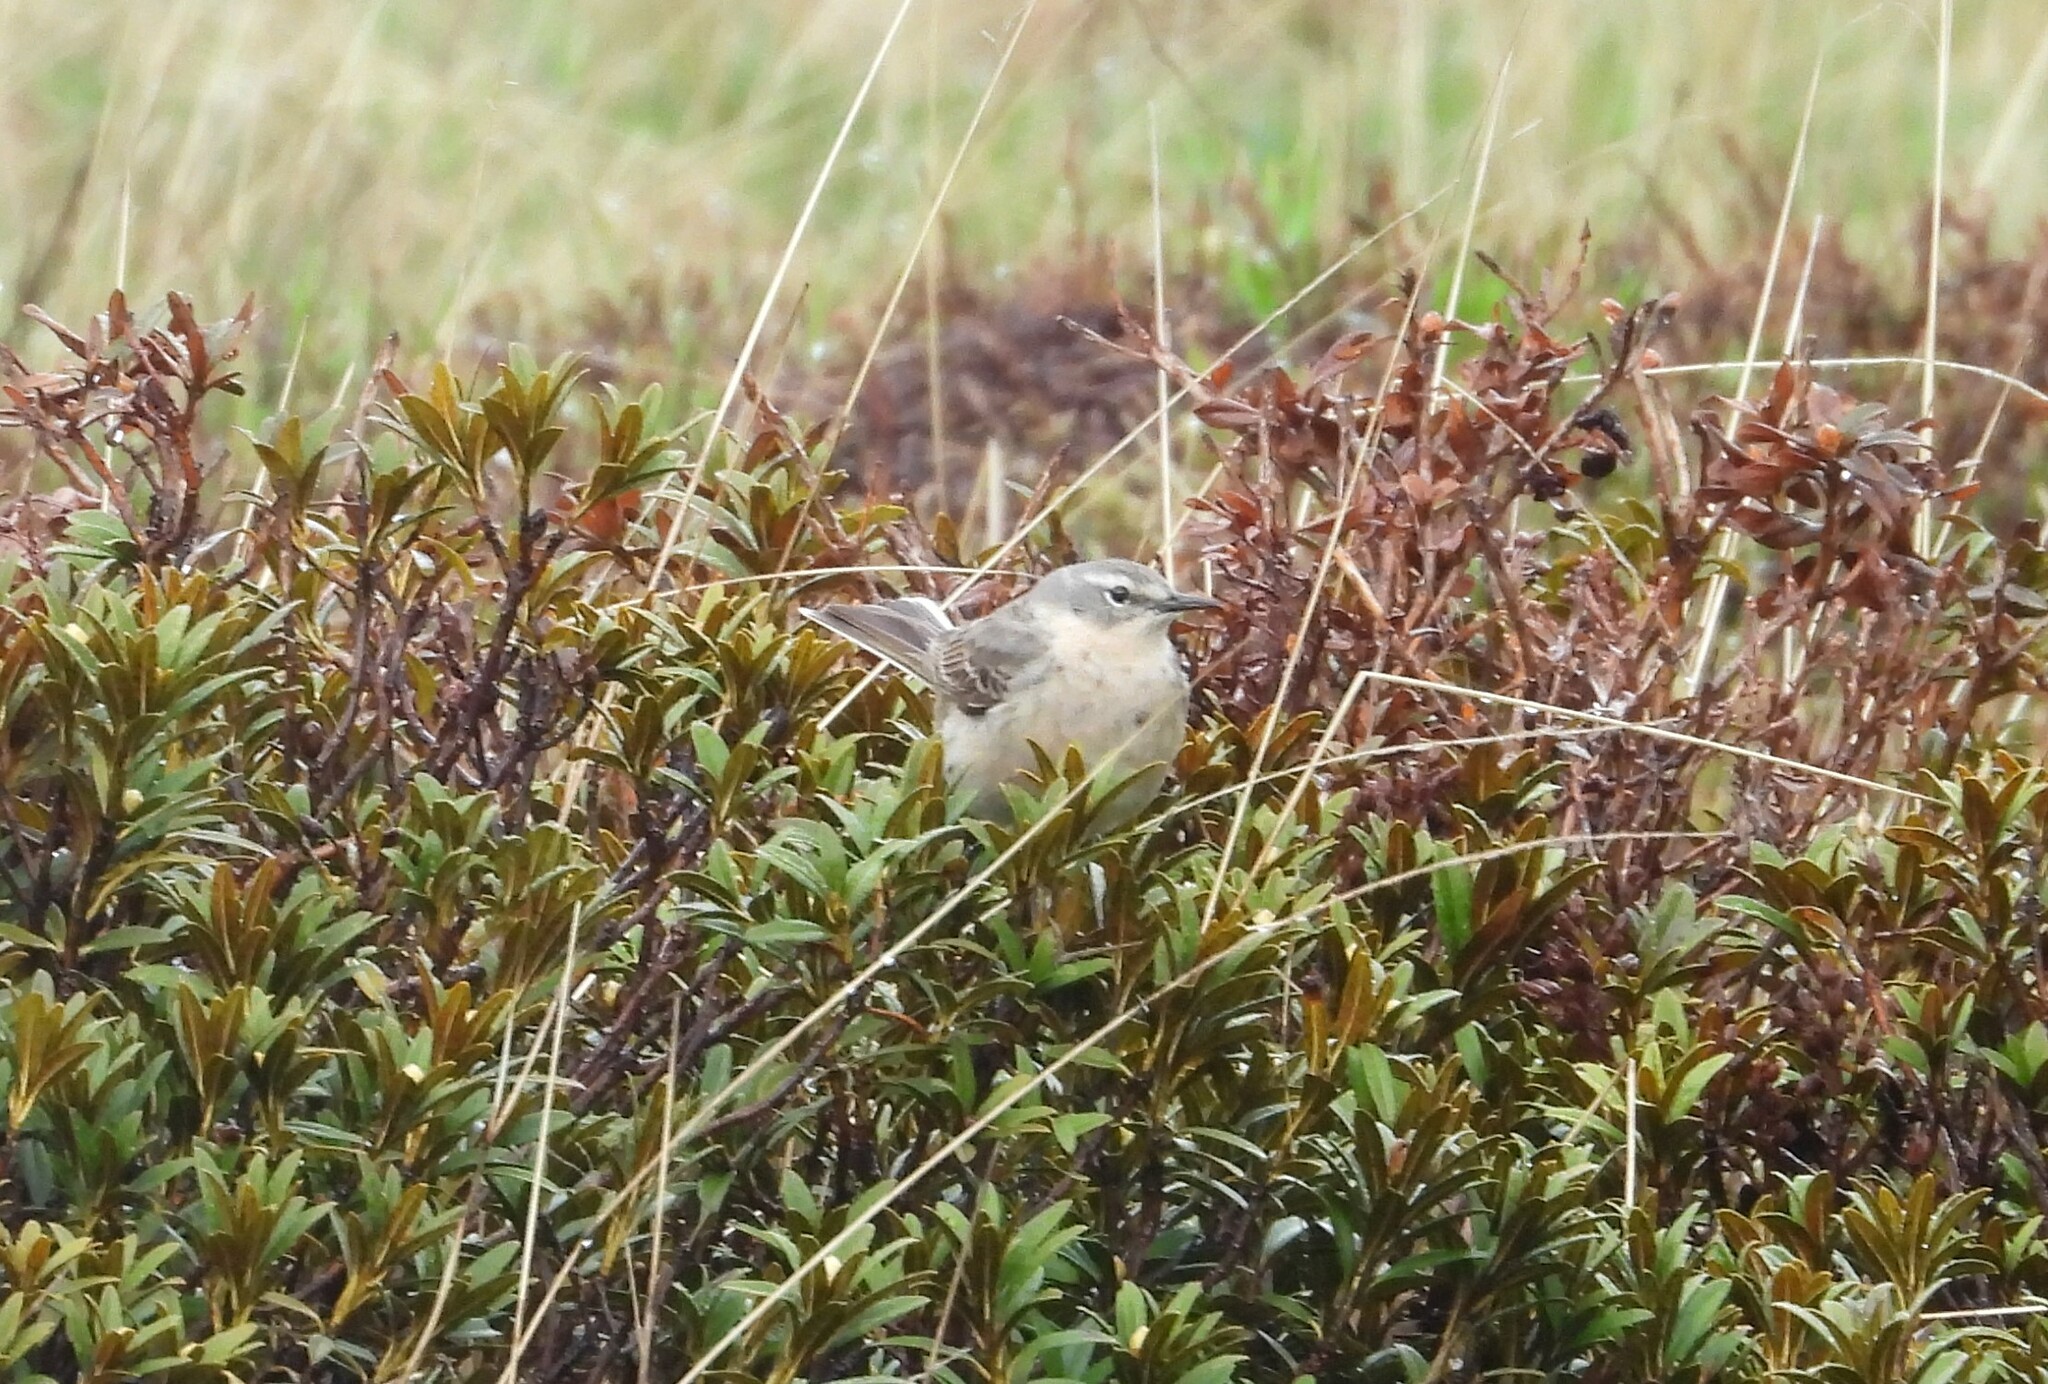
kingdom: Animalia
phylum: Chordata
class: Aves
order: Passeriformes
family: Motacillidae
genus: Anthus
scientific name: Anthus spinoletta
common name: Water pipit
